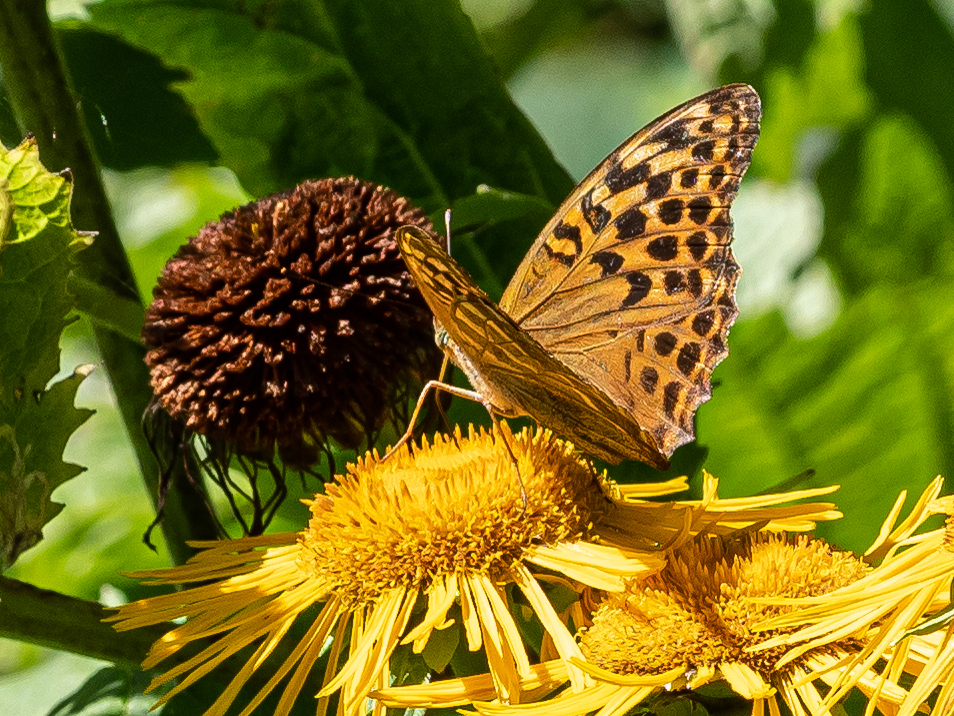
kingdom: Animalia
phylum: Arthropoda
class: Insecta
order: Lepidoptera
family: Nymphalidae
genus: Argynnis
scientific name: Argynnis paphia
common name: Silver-washed fritillary
